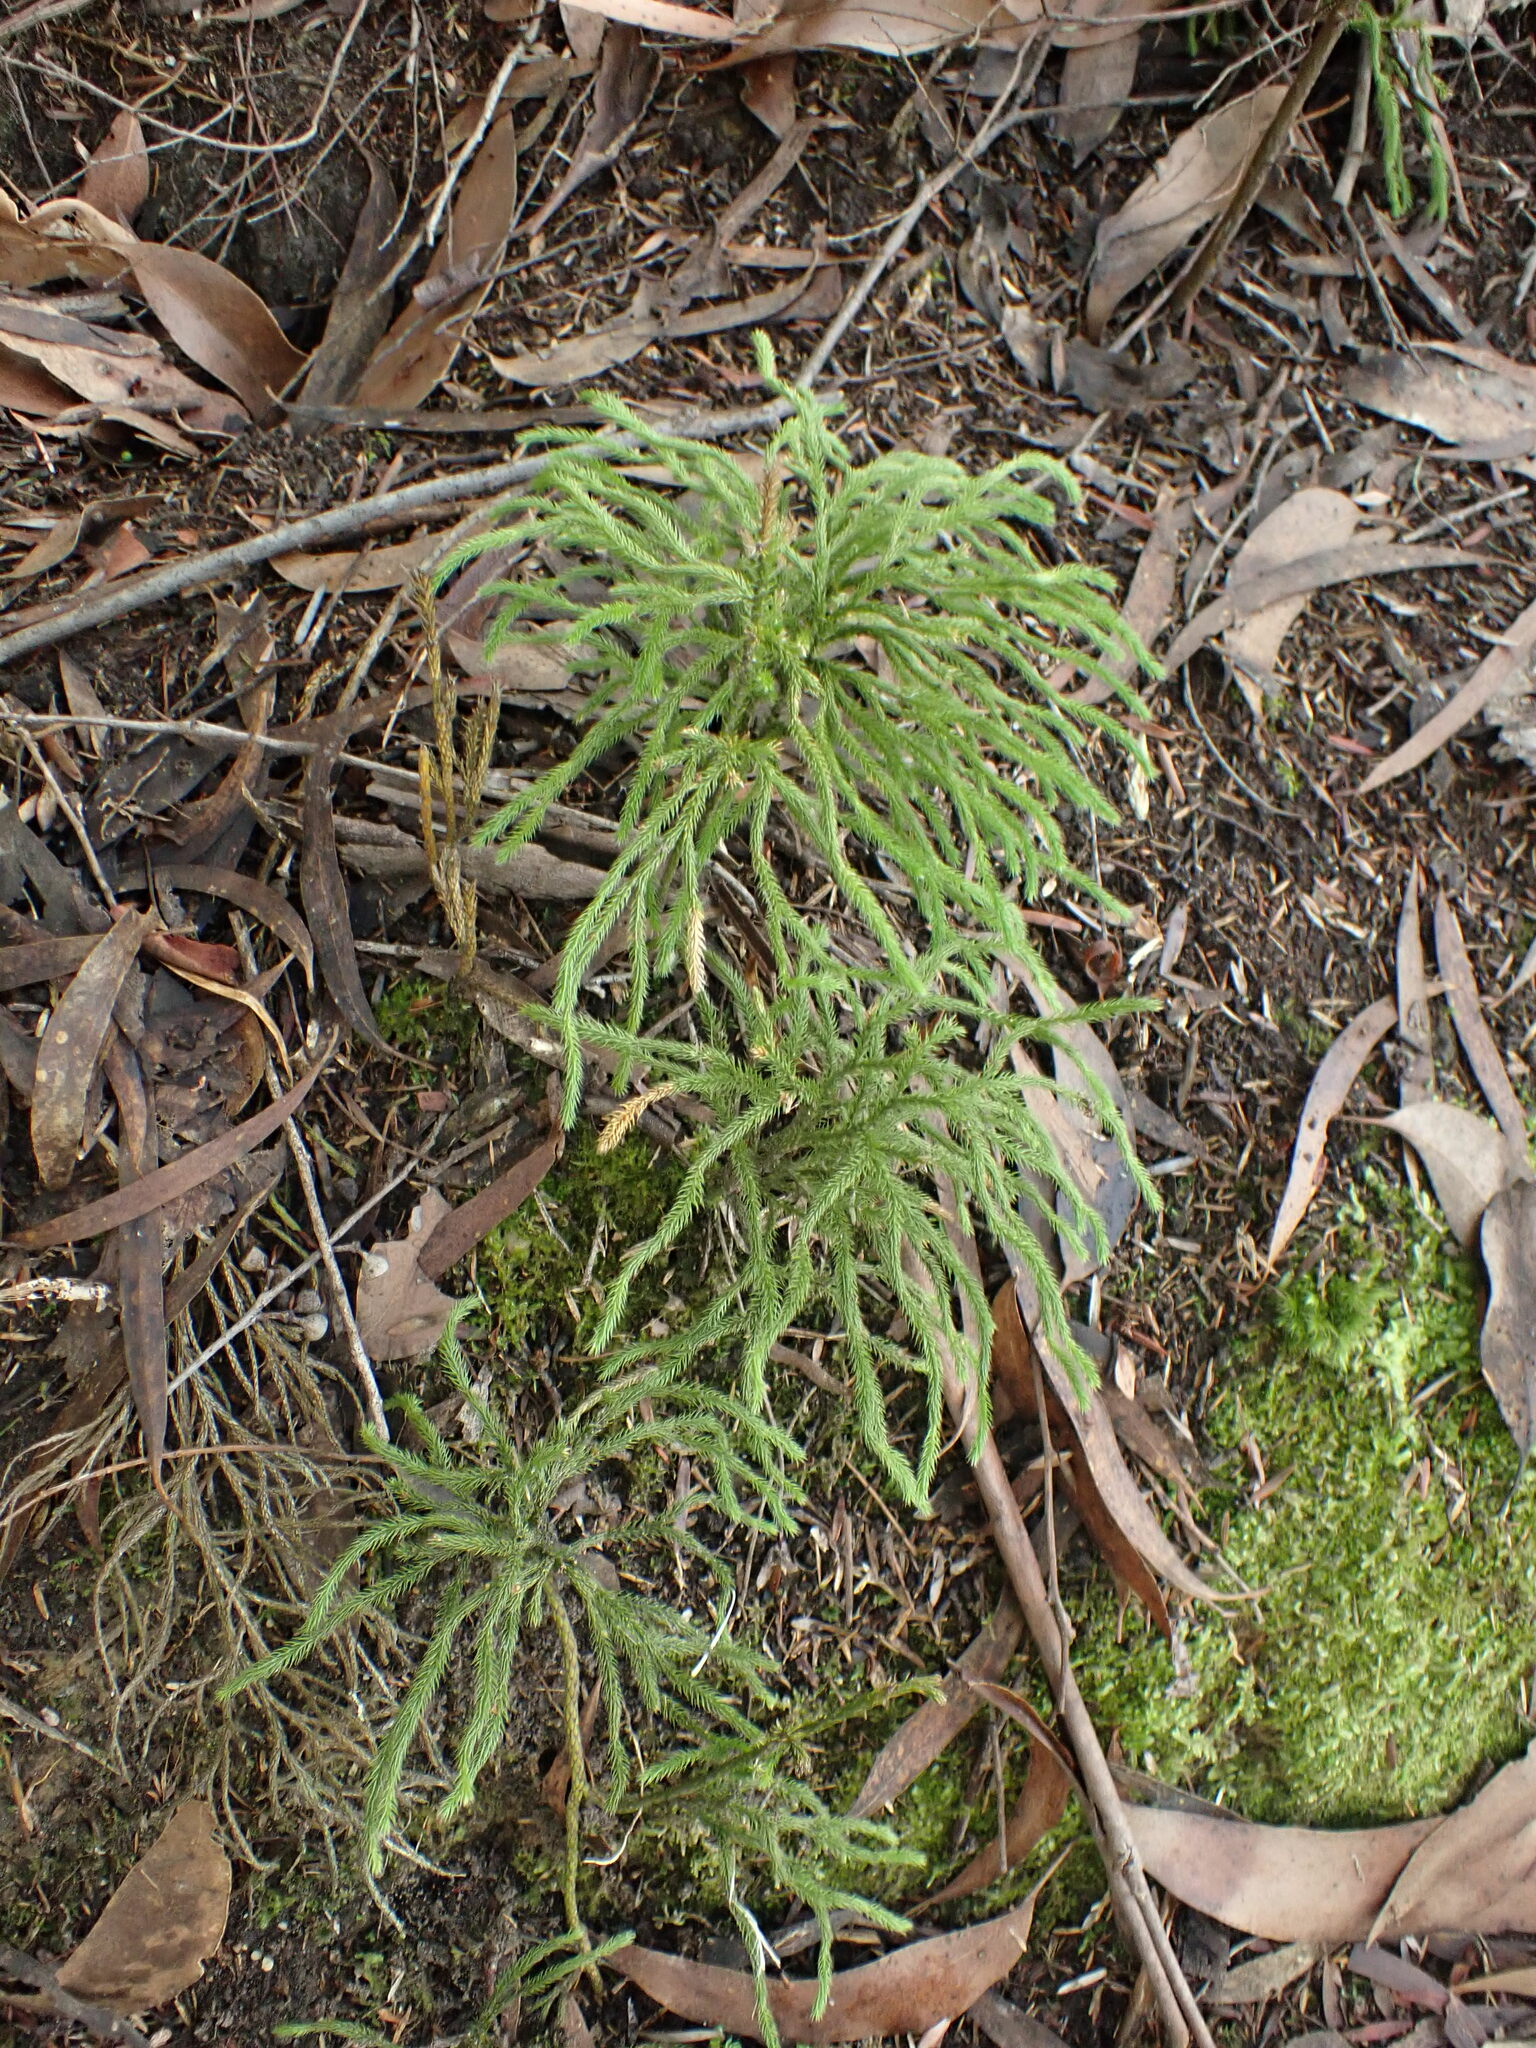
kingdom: Plantae
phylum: Tracheophyta
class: Lycopodiopsida
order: Lycopodiales
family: Lycopodiaceae
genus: Pseudolycopodium
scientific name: Pseudolycopodium densum
